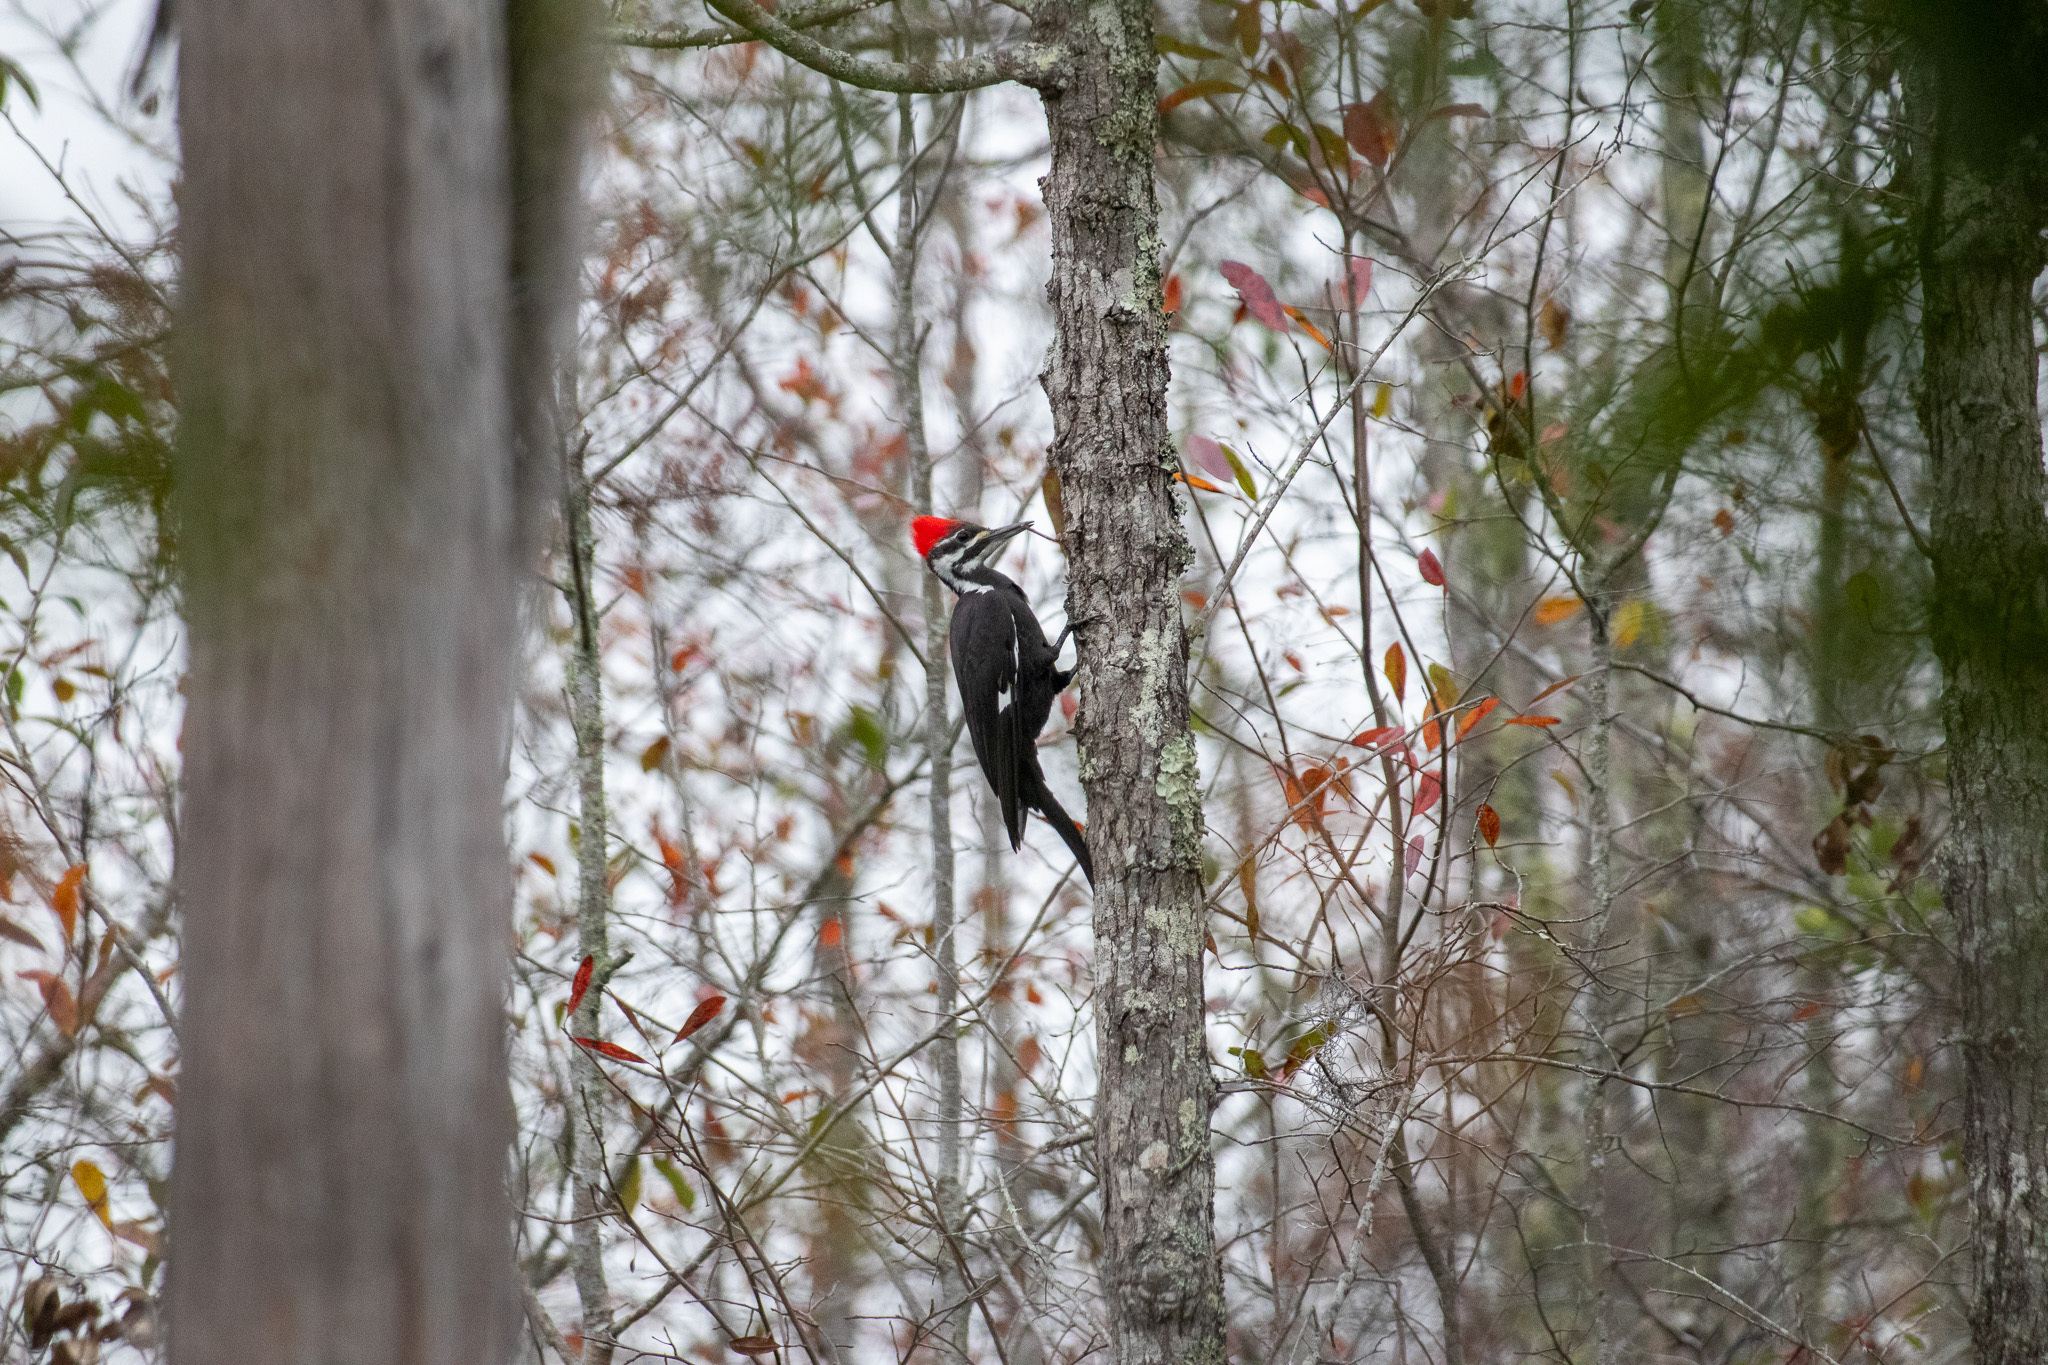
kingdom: Animalia
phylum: Chordata
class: Aves
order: Piciformes
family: Picidae
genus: Dryocopus
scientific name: Dryocopus pileatus
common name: Pileated woodpecker
